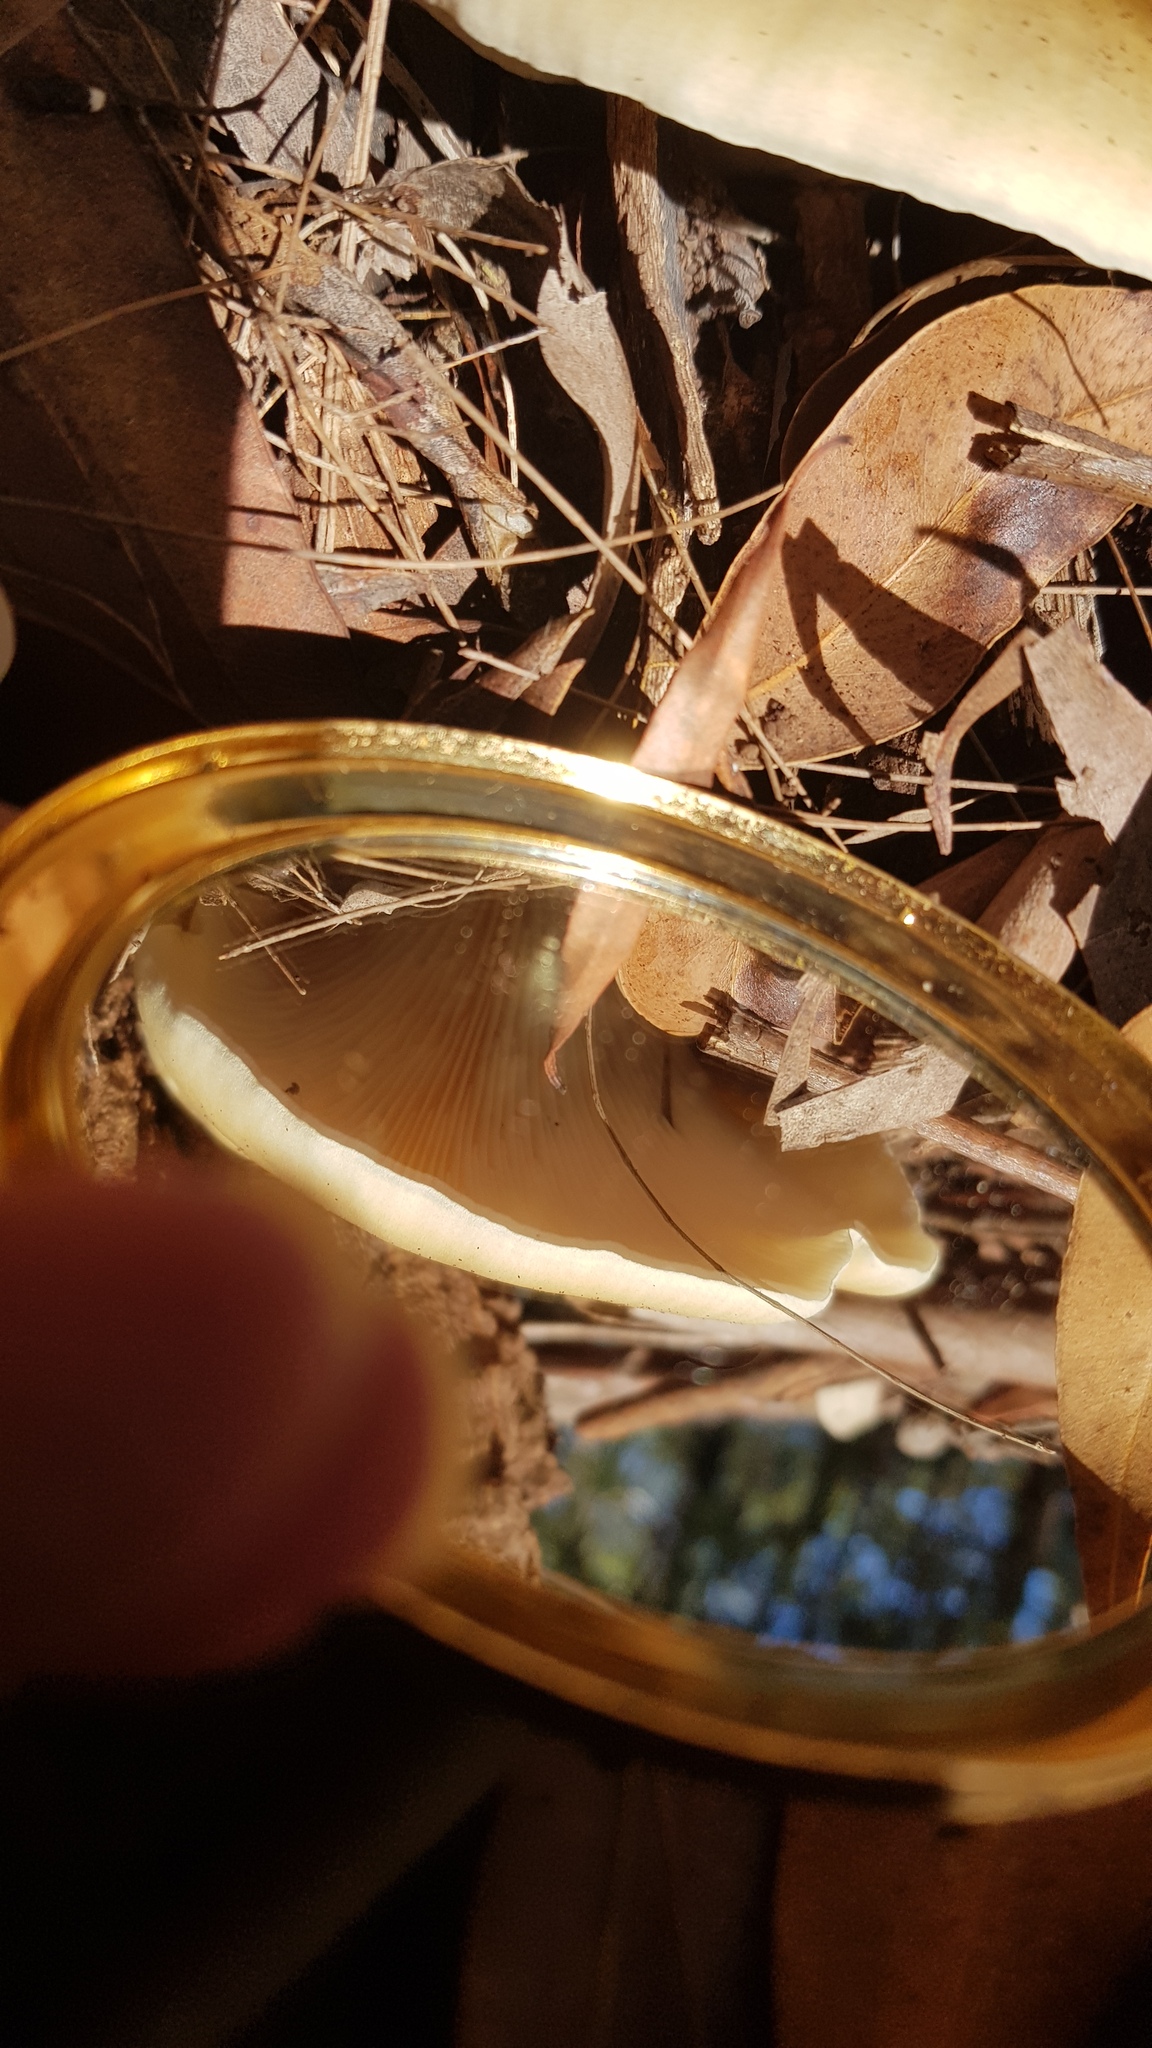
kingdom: Fungi
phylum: Basidiomycota
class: Agaricomycetes
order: Agaricales
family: Omphalotaceae
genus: Omphalotus
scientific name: Omphalotus nidiformis
